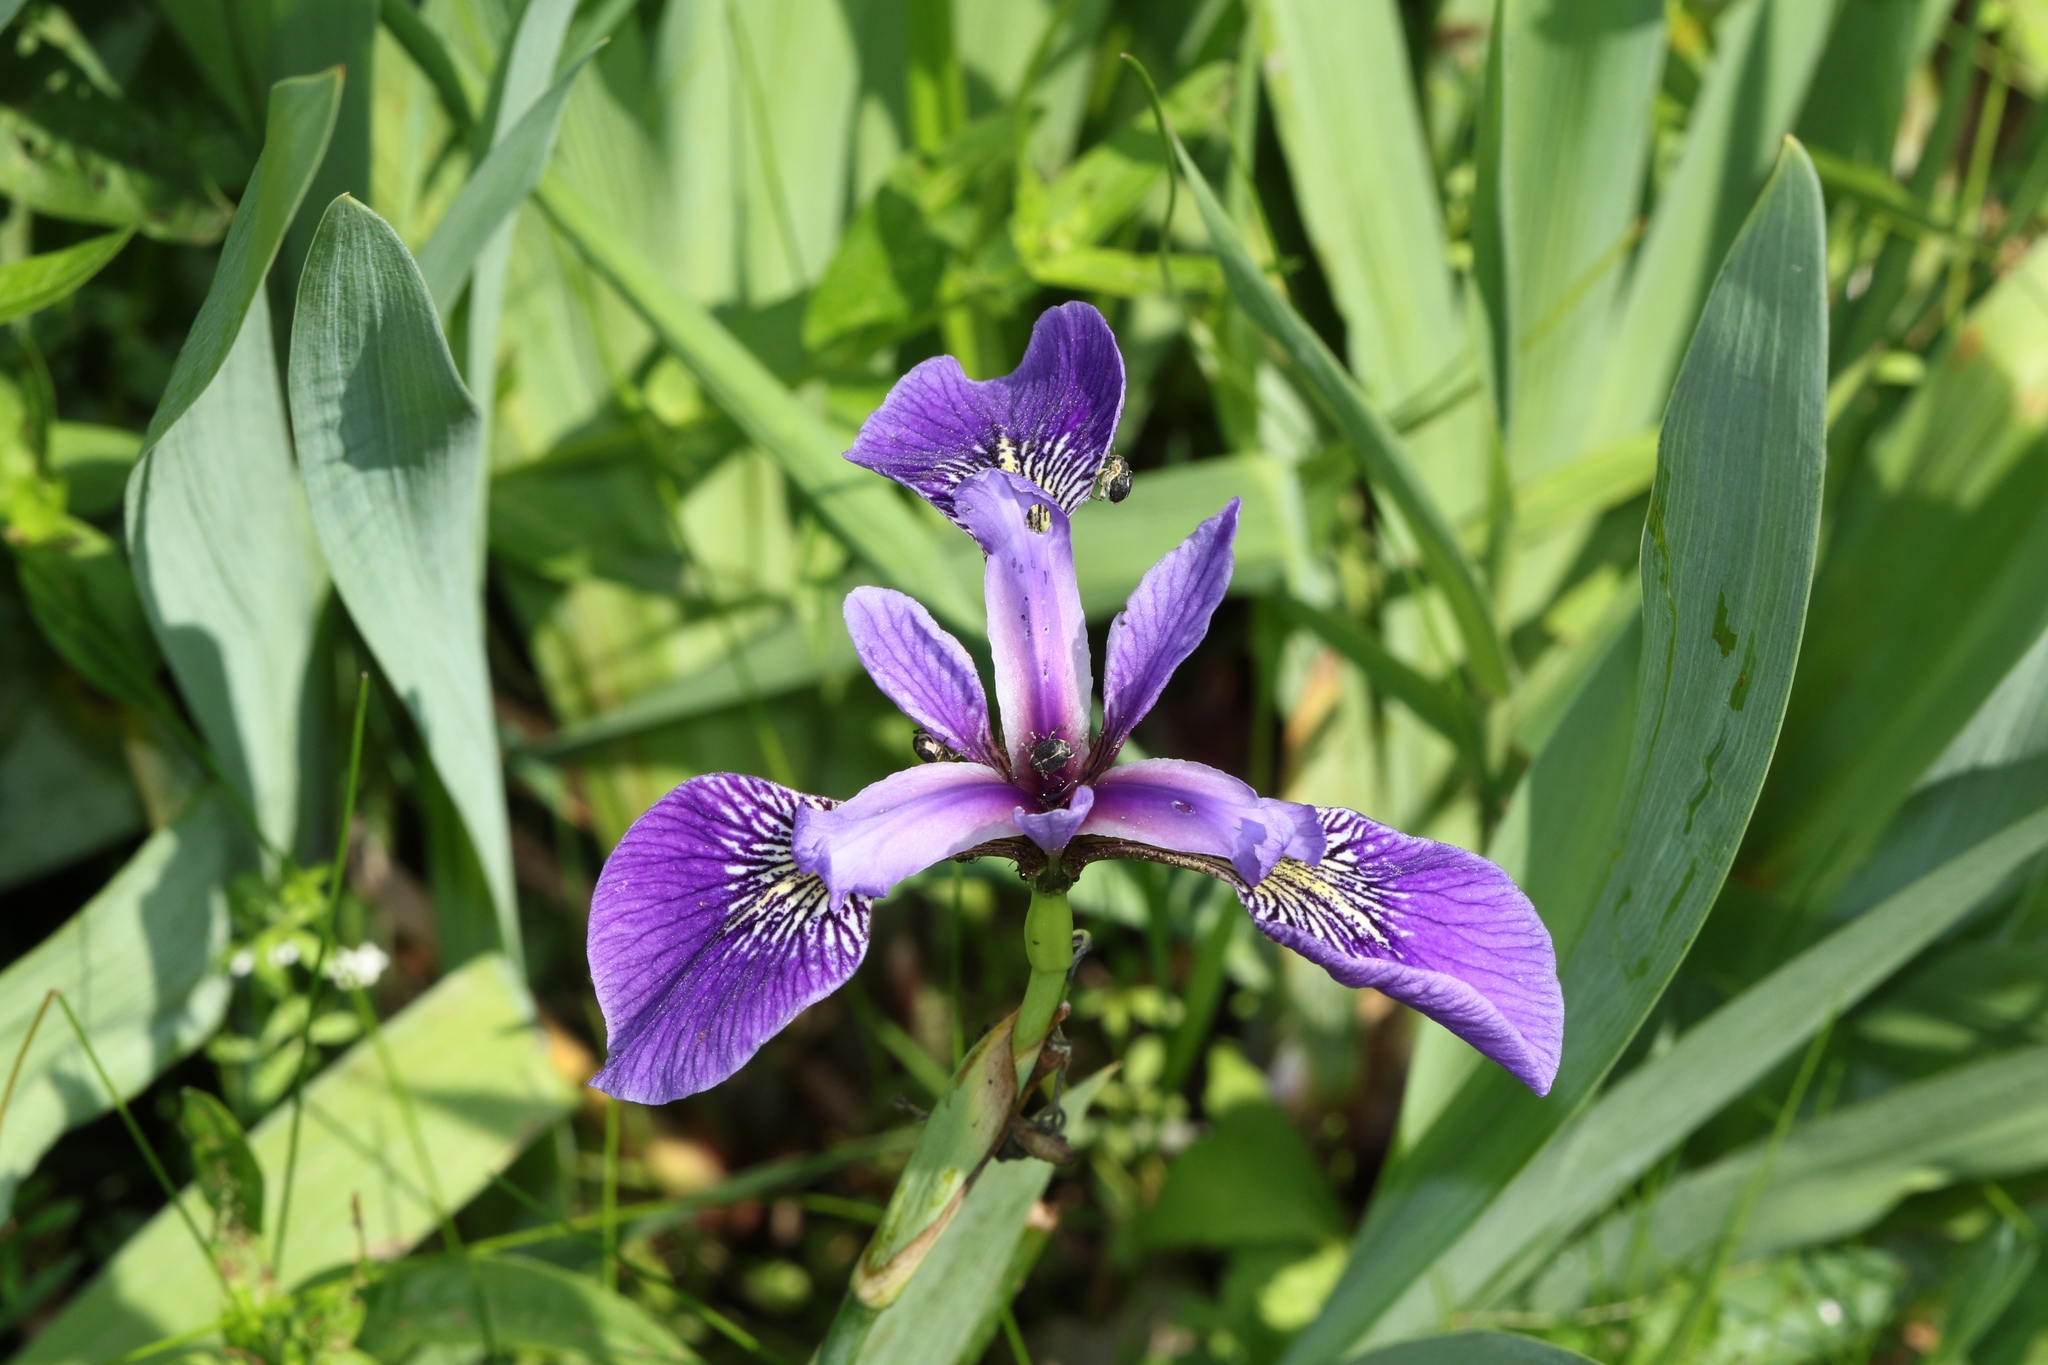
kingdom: Plantae
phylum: Tracheophyta
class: Liliopsida
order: Asparagales
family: Iridaceae
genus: Iris
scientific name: Iris versicolor
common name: Purple iris
